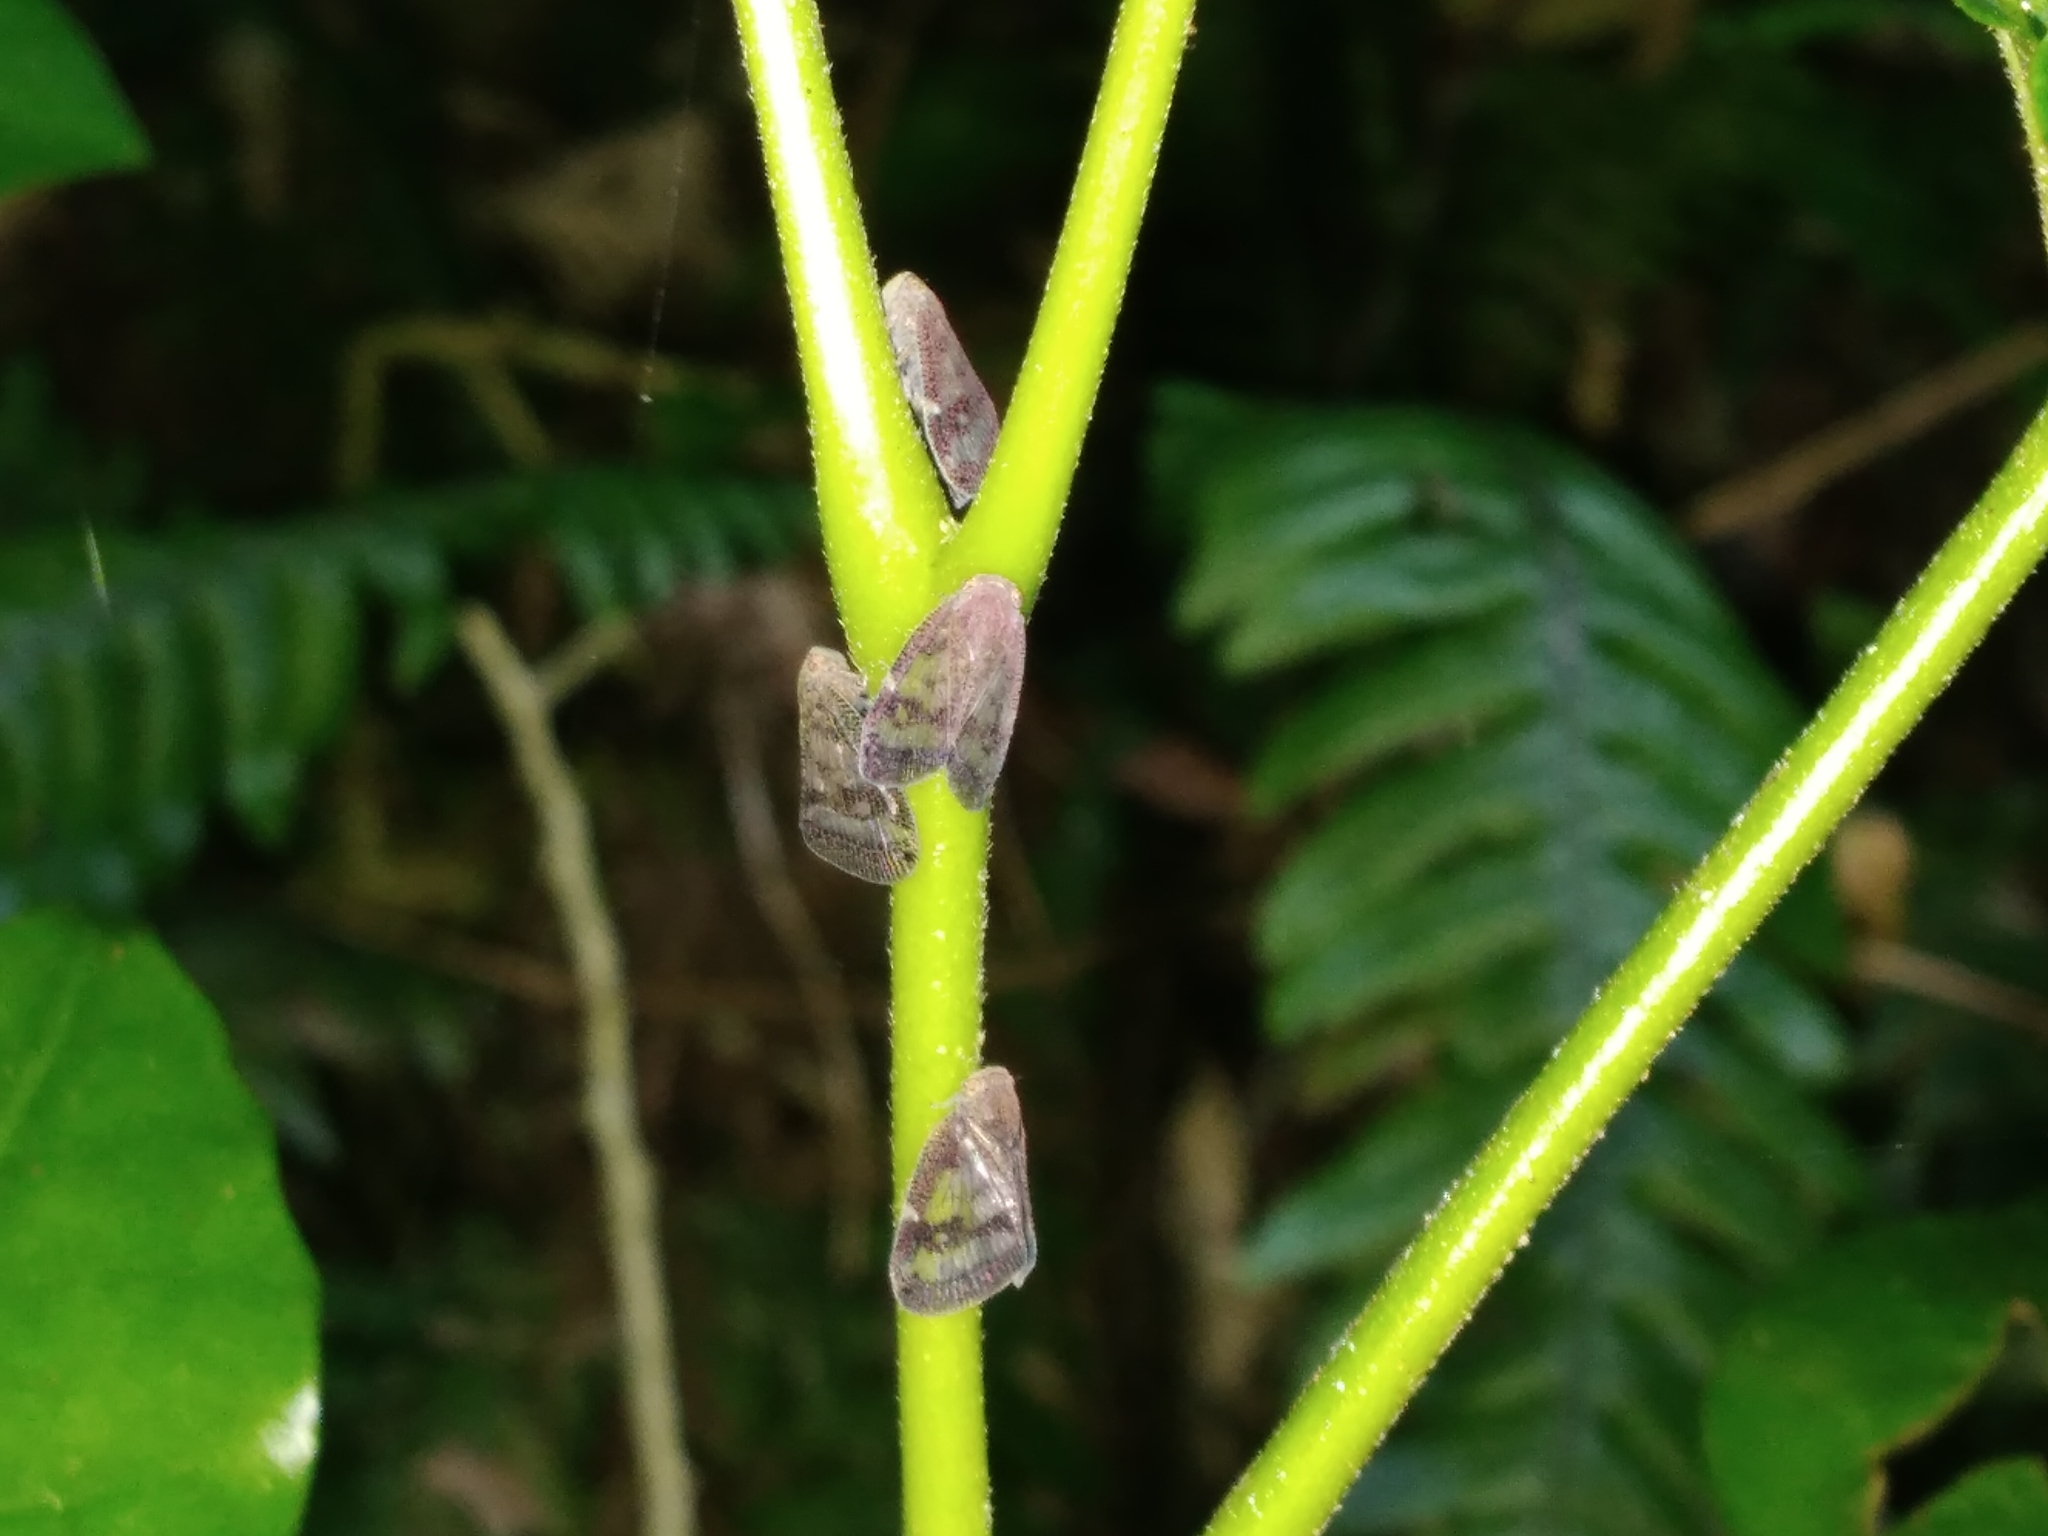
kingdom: Animalia
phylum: Arthropoda
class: Insecta
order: Hemiptera
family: Ricaniidae
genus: Scolypopa
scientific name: Scolypopa australis
